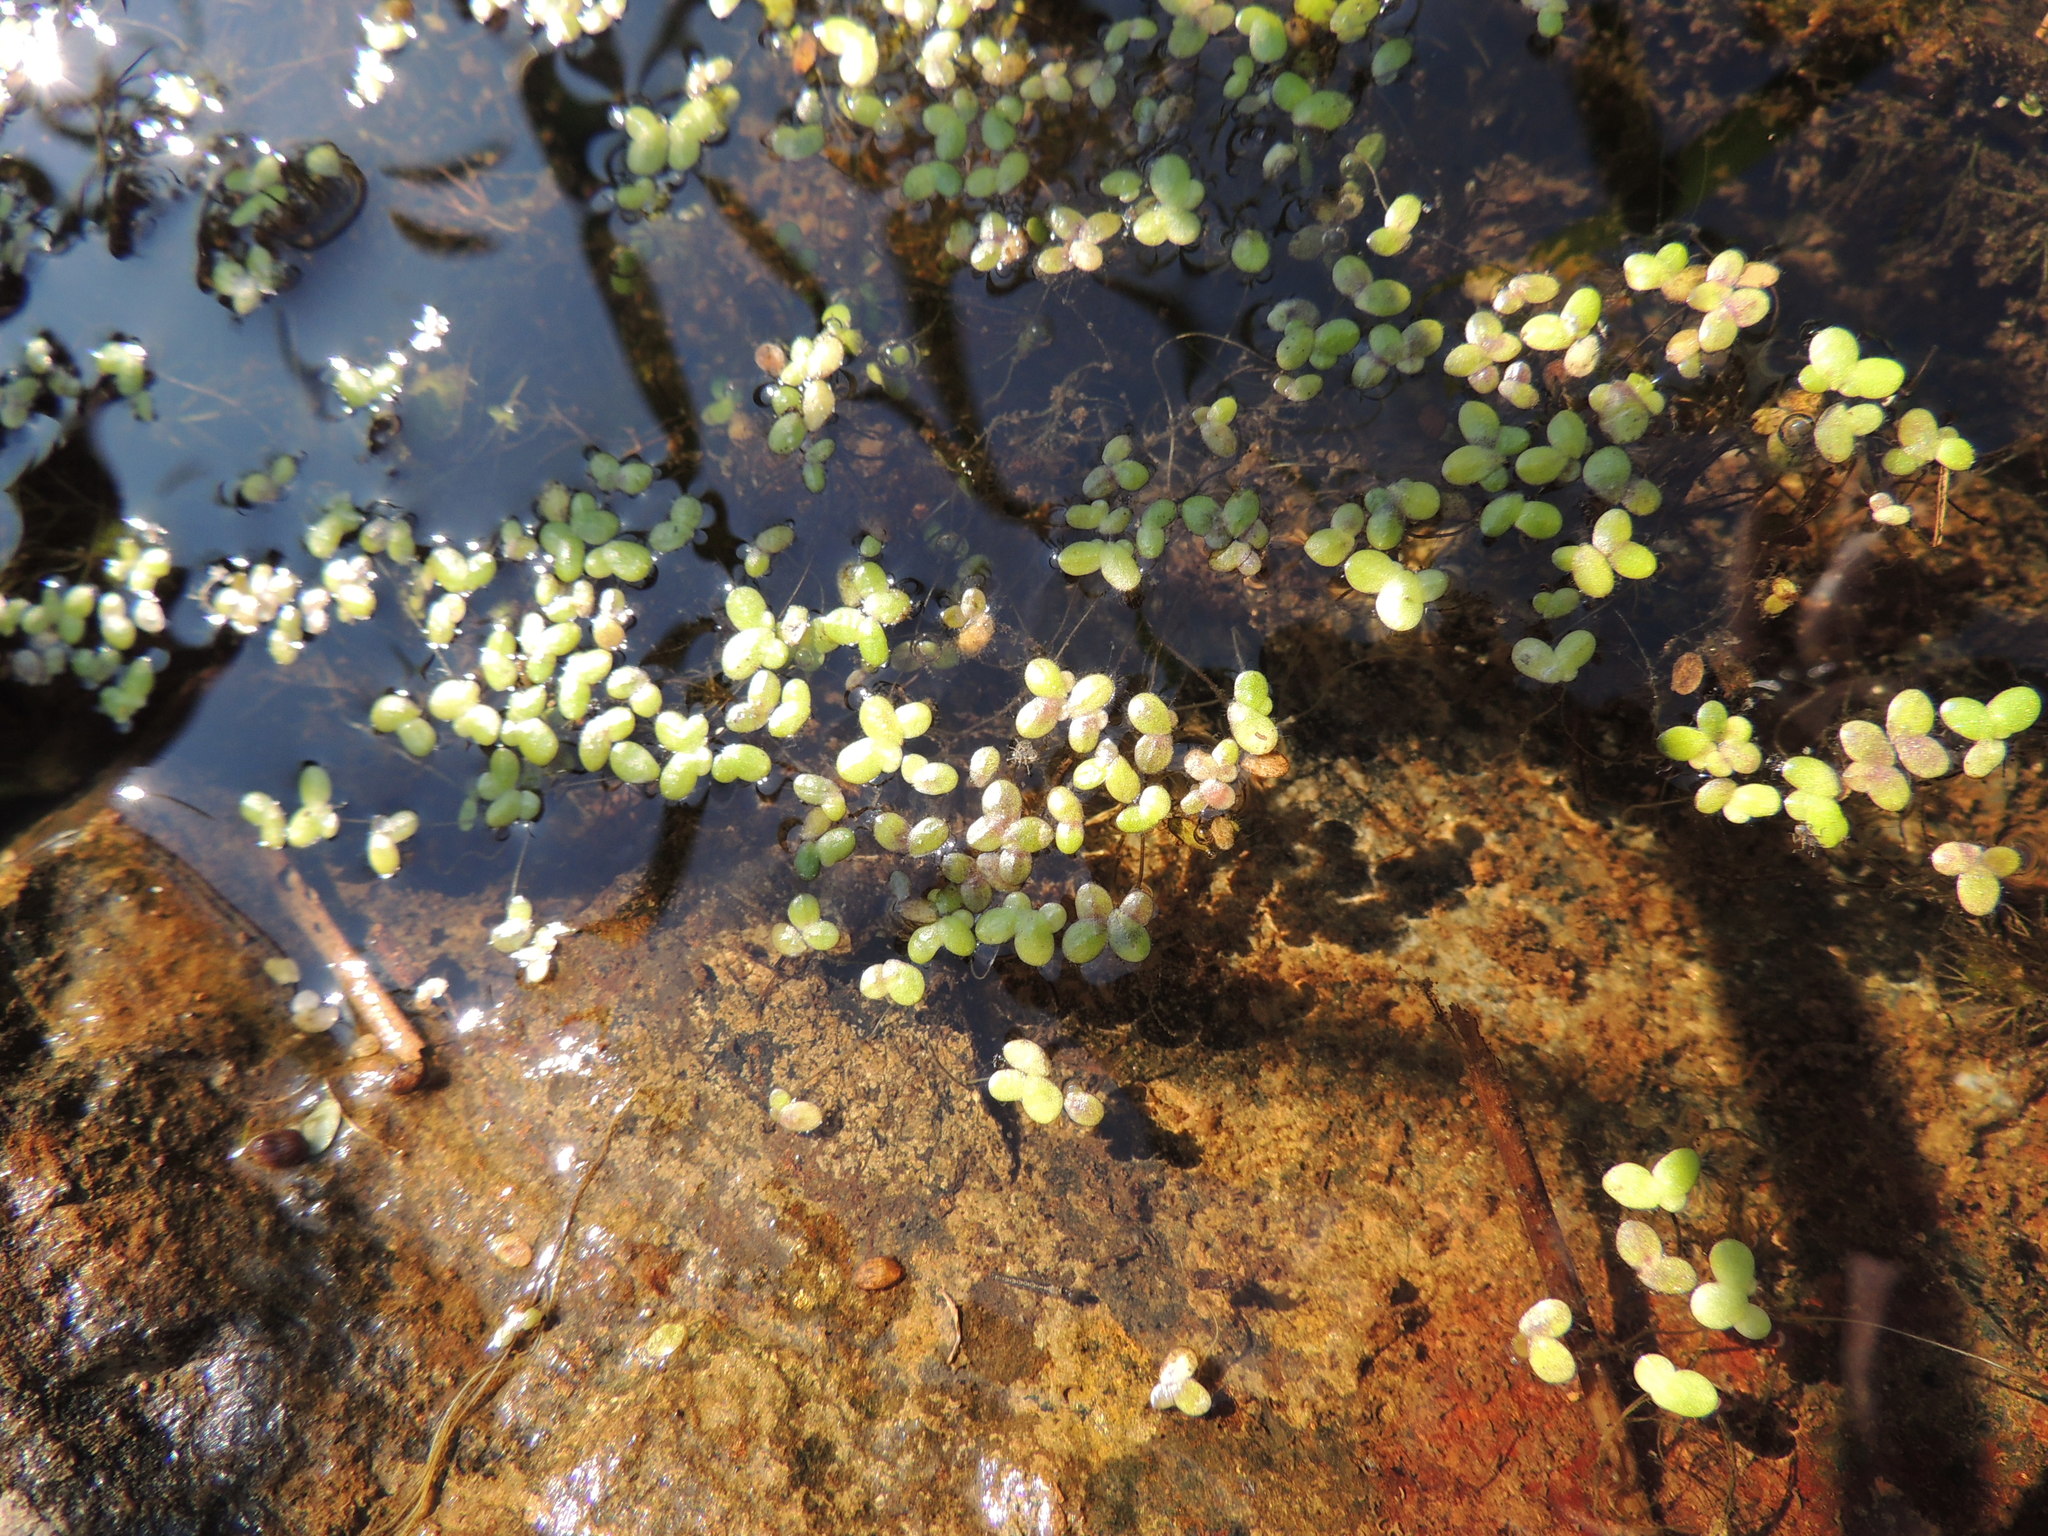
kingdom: Plantae
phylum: Tracheophyta
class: Liliopsida
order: Alismatales
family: Araceae
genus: Lemna
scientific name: Lemna minor
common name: Common duckweed
